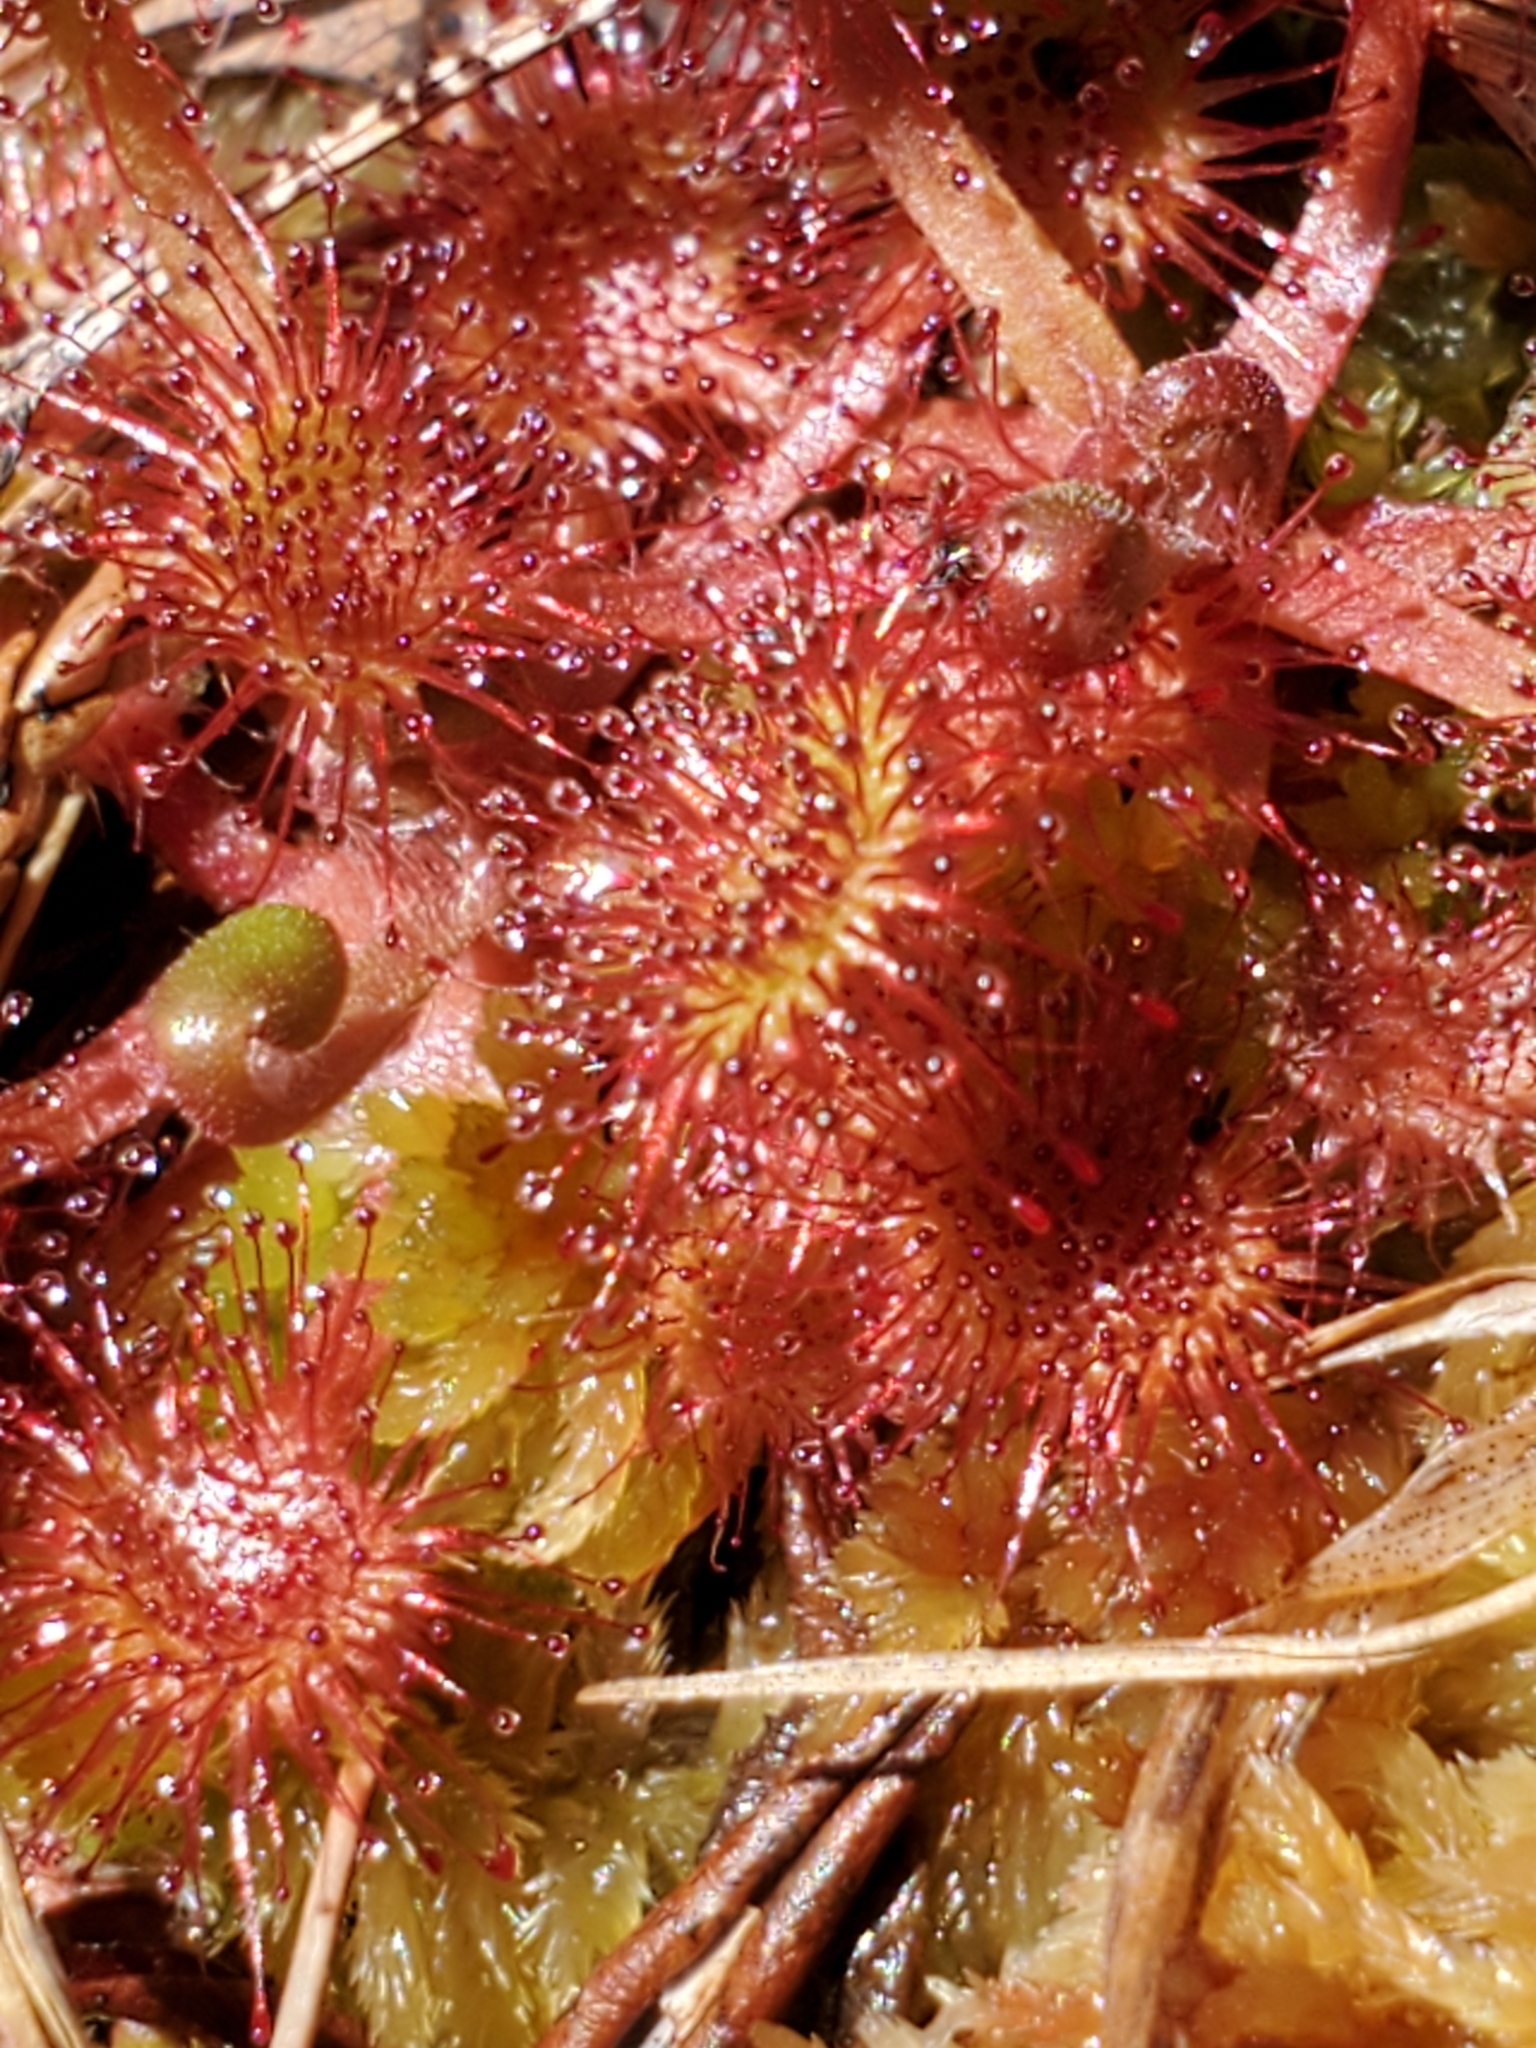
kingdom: Plantae
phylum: Tracheophyta
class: Magnoliopsida
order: Caryophyllales
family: Droseraceae
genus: Drosera
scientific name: Drosera rotundifolia
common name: Round-leaved sundew
